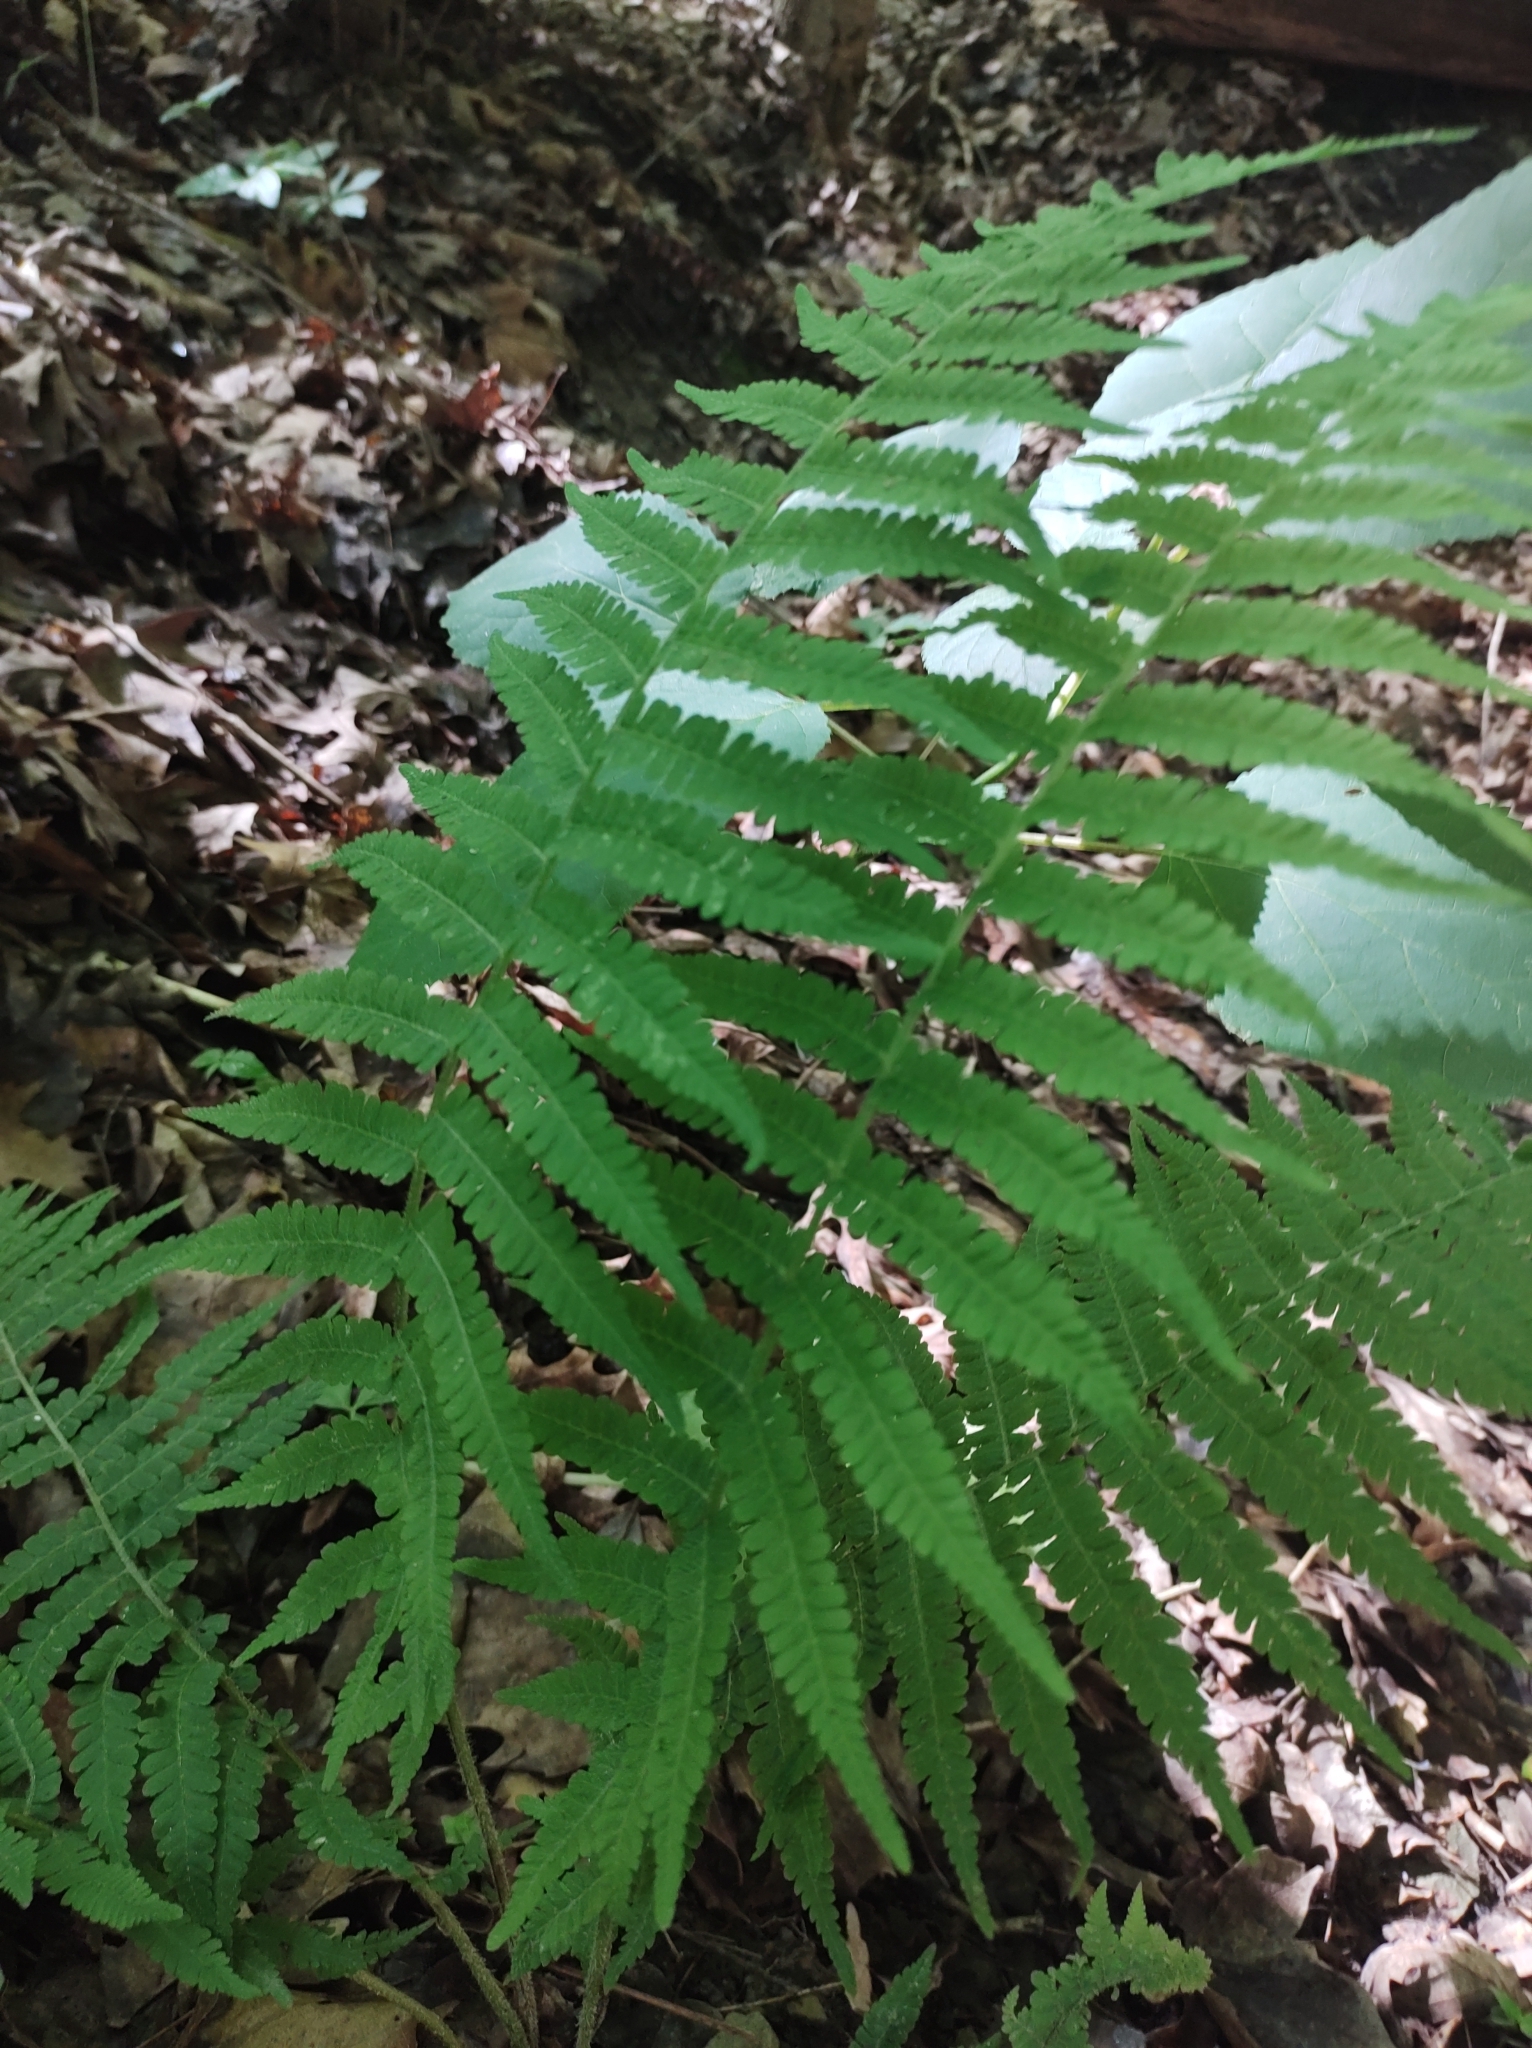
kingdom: Plantae
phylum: Tracheophyta
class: Polypodiopsida
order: Polypodiales
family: Athyriaceae
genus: Deparia
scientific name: Deparia acrostichoides
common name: Silver false spleenwort
